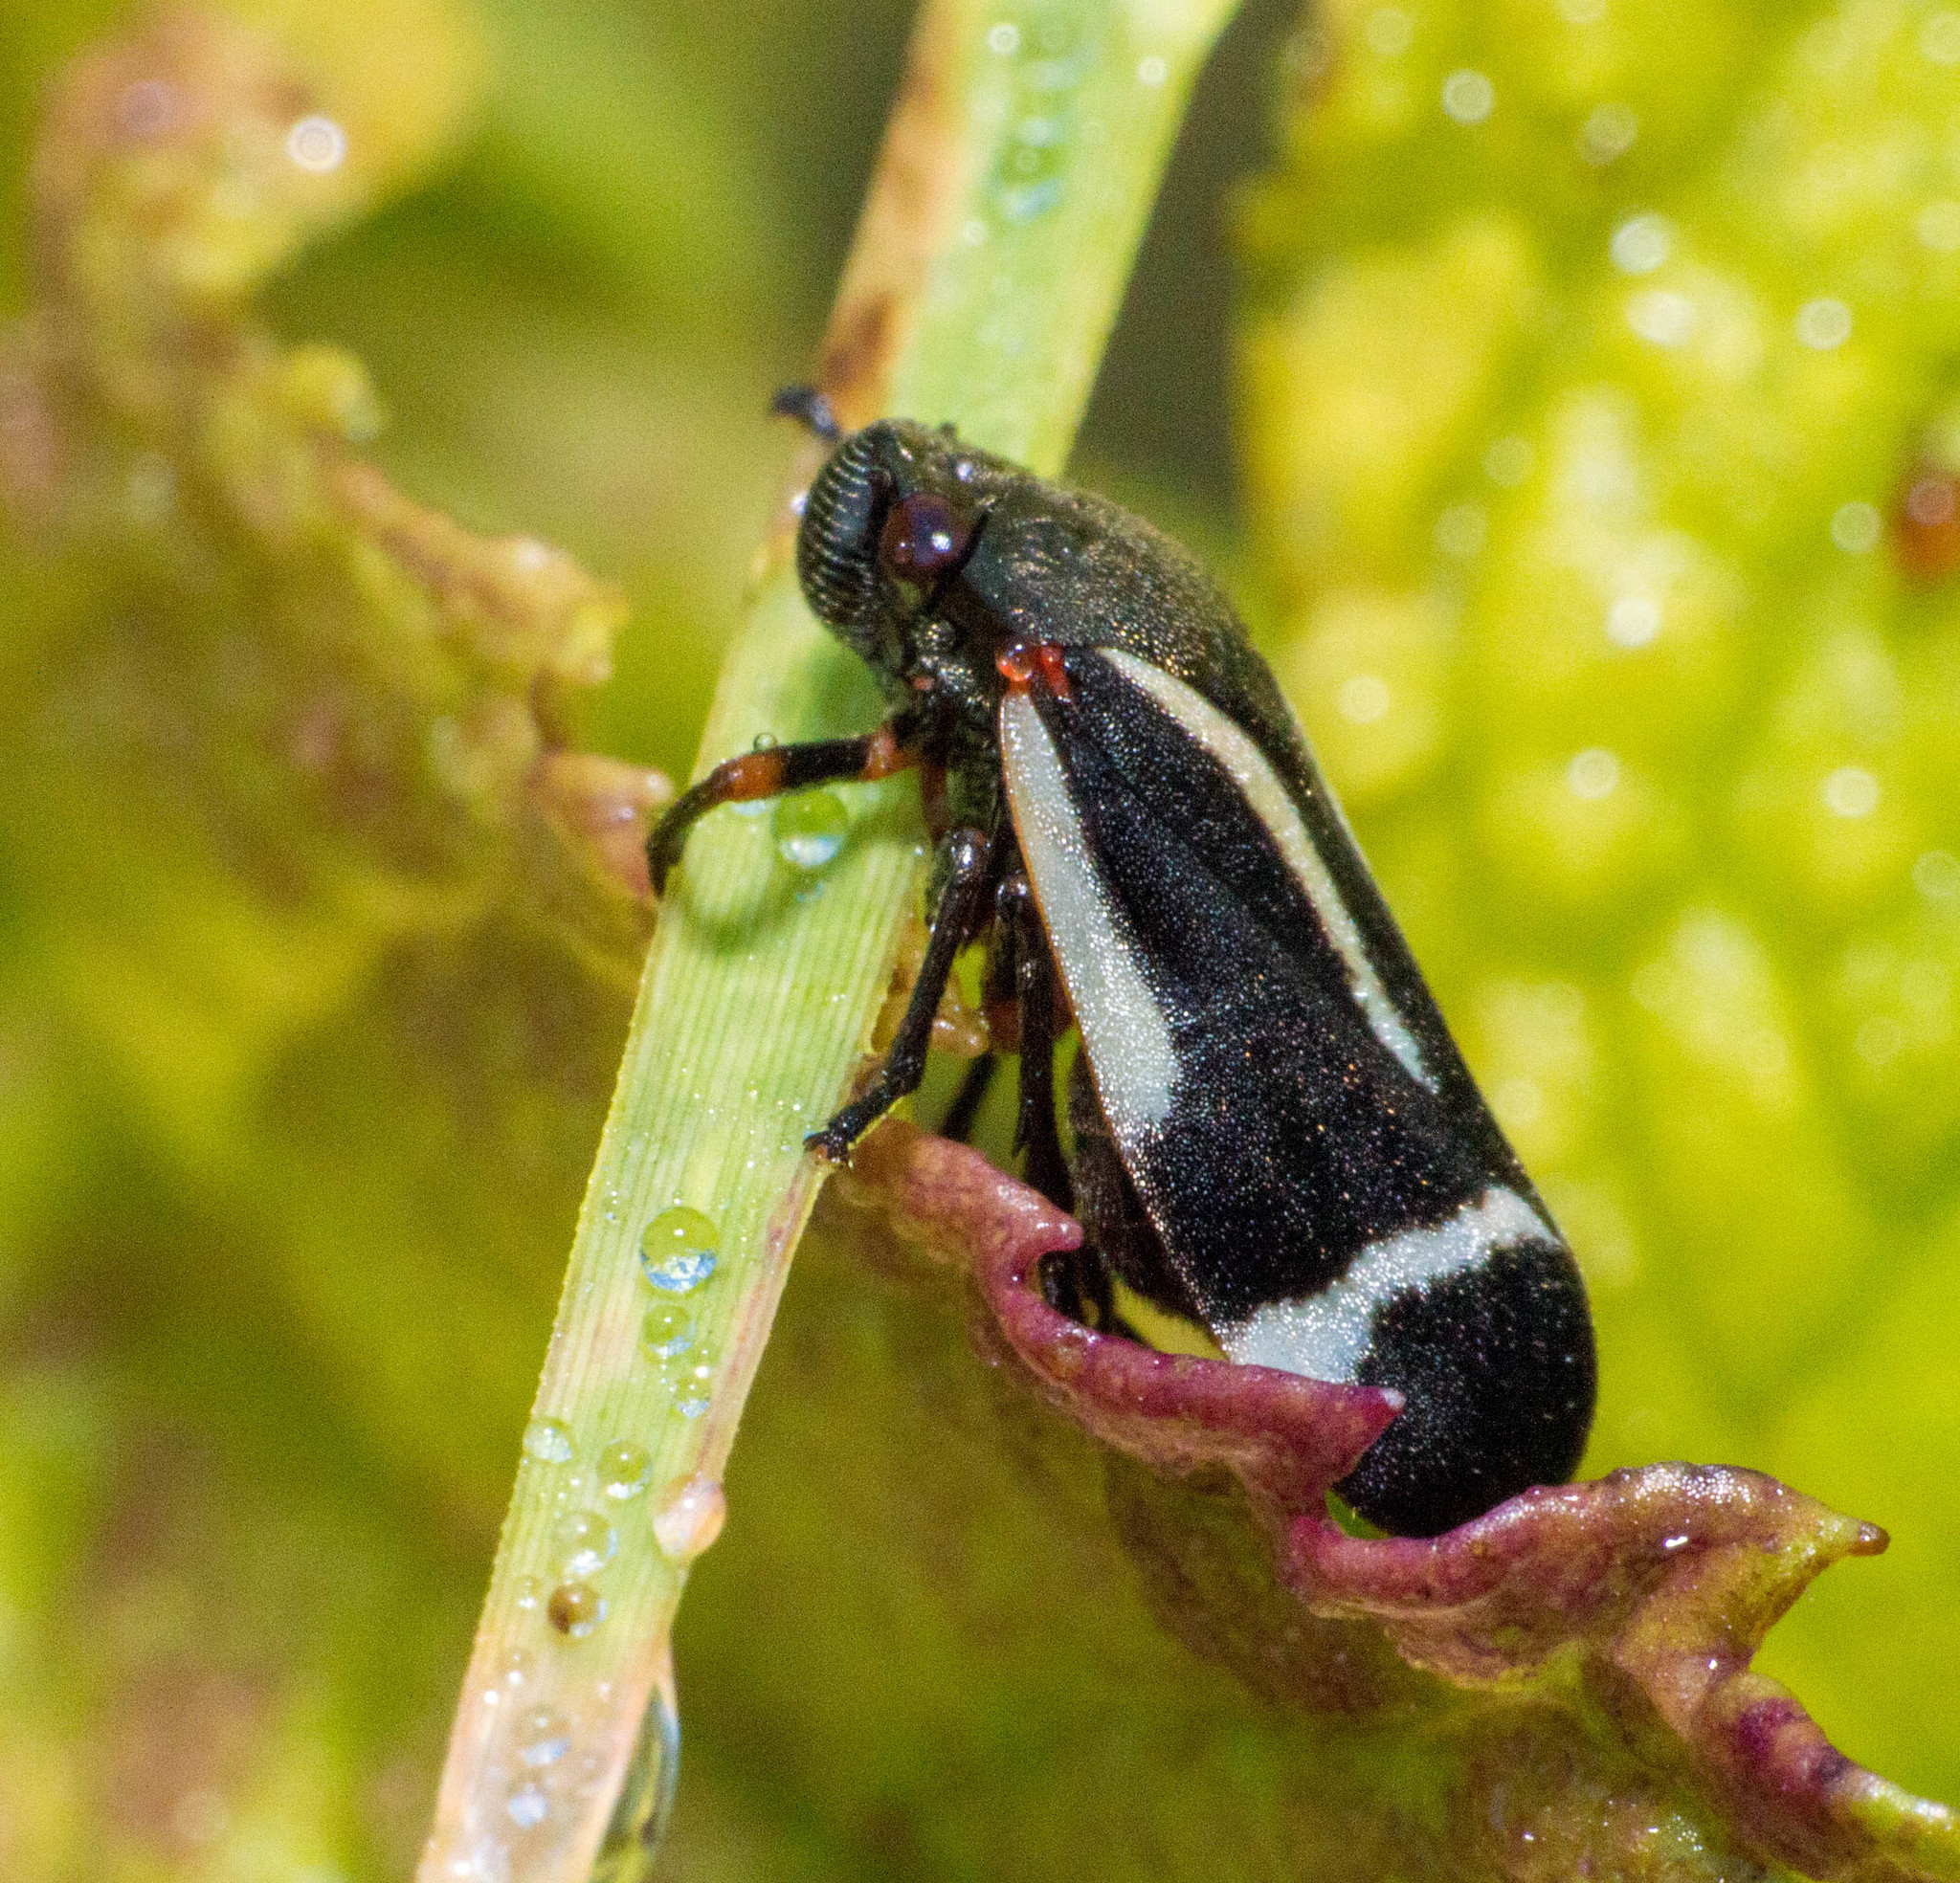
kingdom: Animalia
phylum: Arthropoda
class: Insecta
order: Hemiptera
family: Cercopidae
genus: Notozulia
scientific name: Notozulia entreriana
